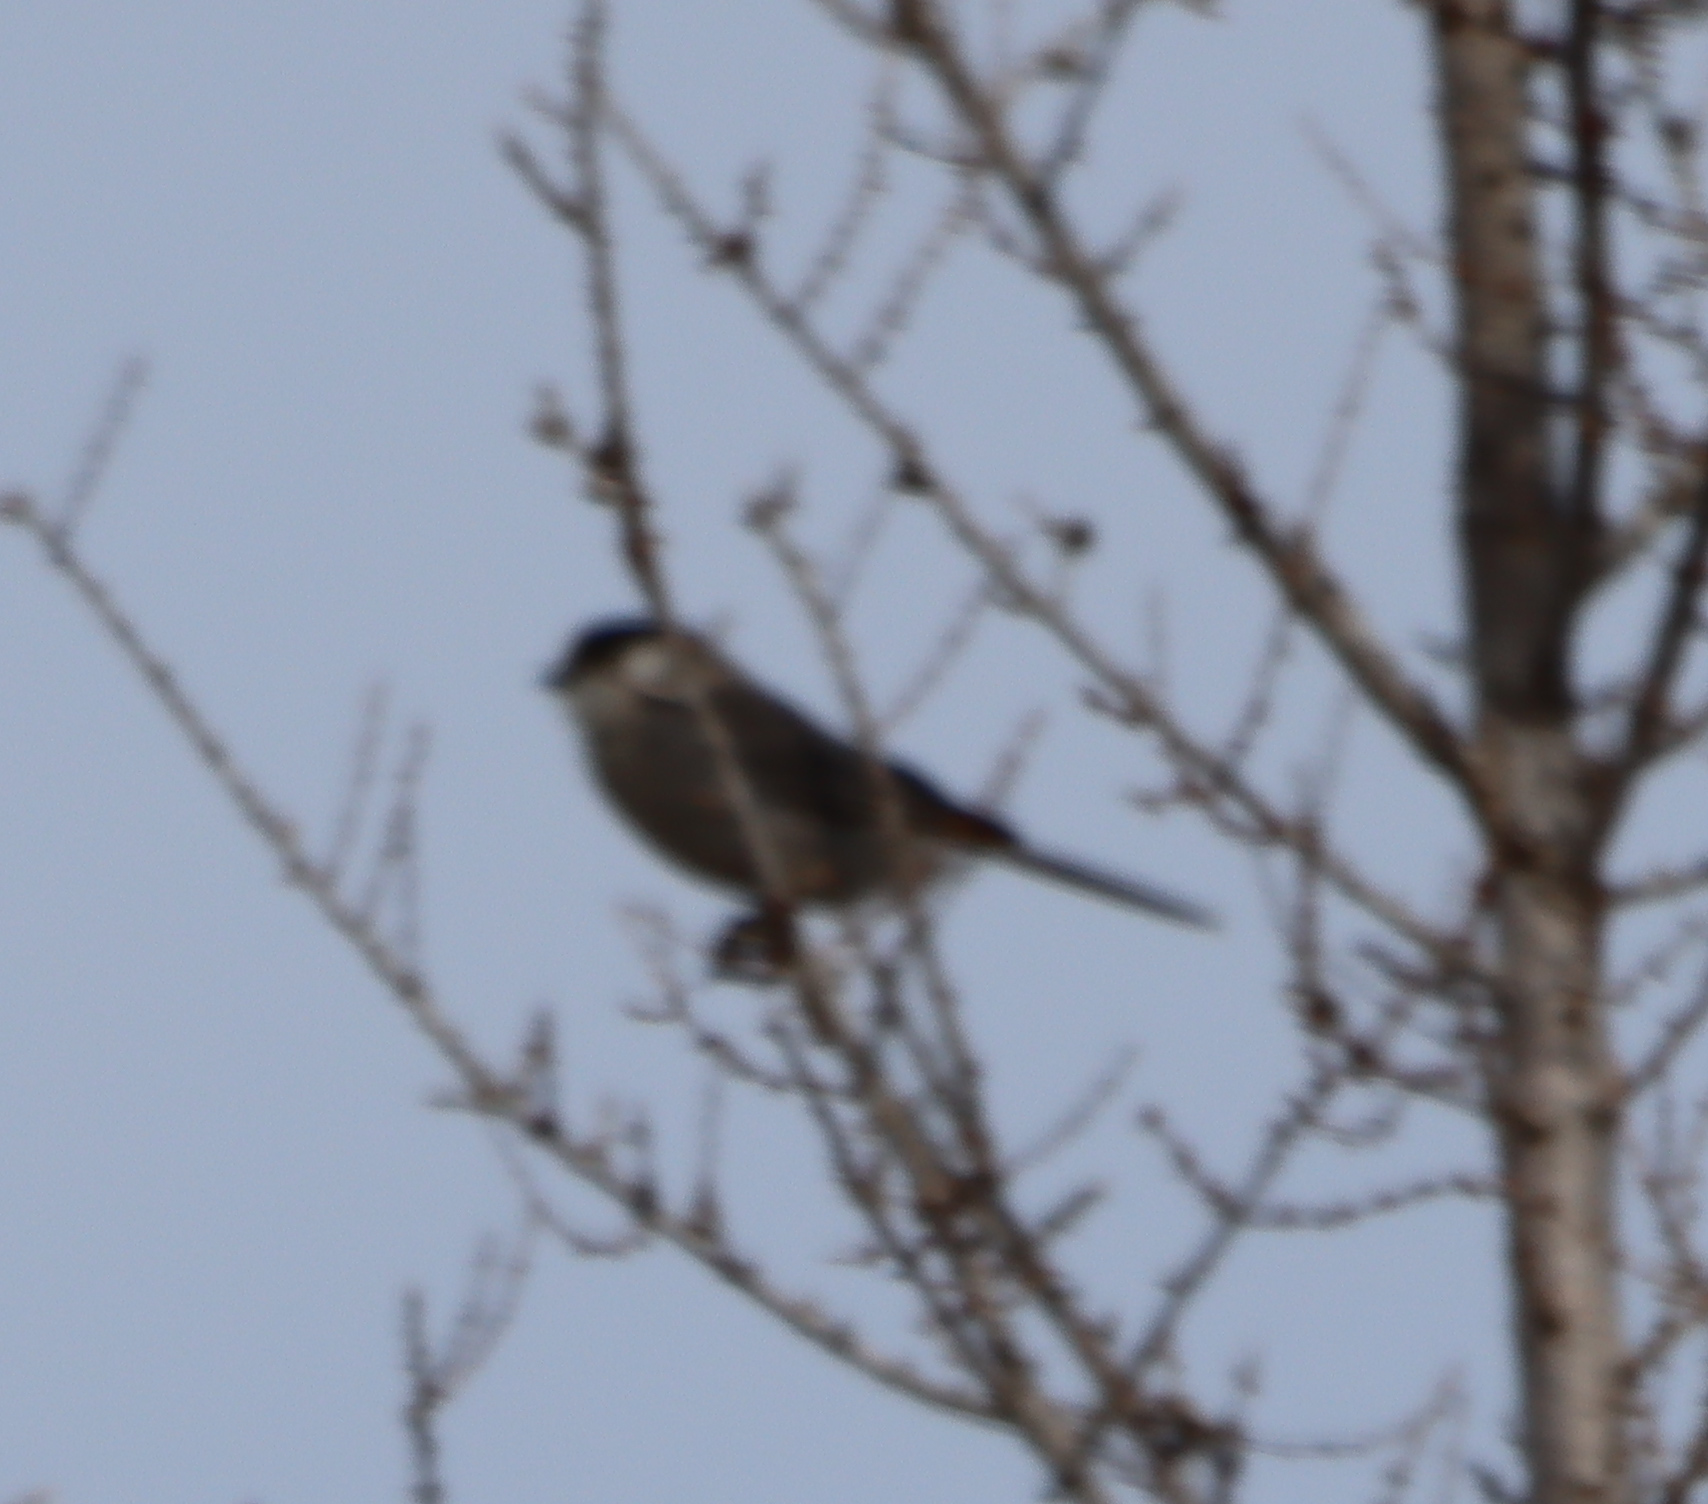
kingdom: Animalia
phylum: Chordata
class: Aves
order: Passeriformes
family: Corvidae
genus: Perisoreus
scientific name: Perisoreus canadensis
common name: Gray jay
